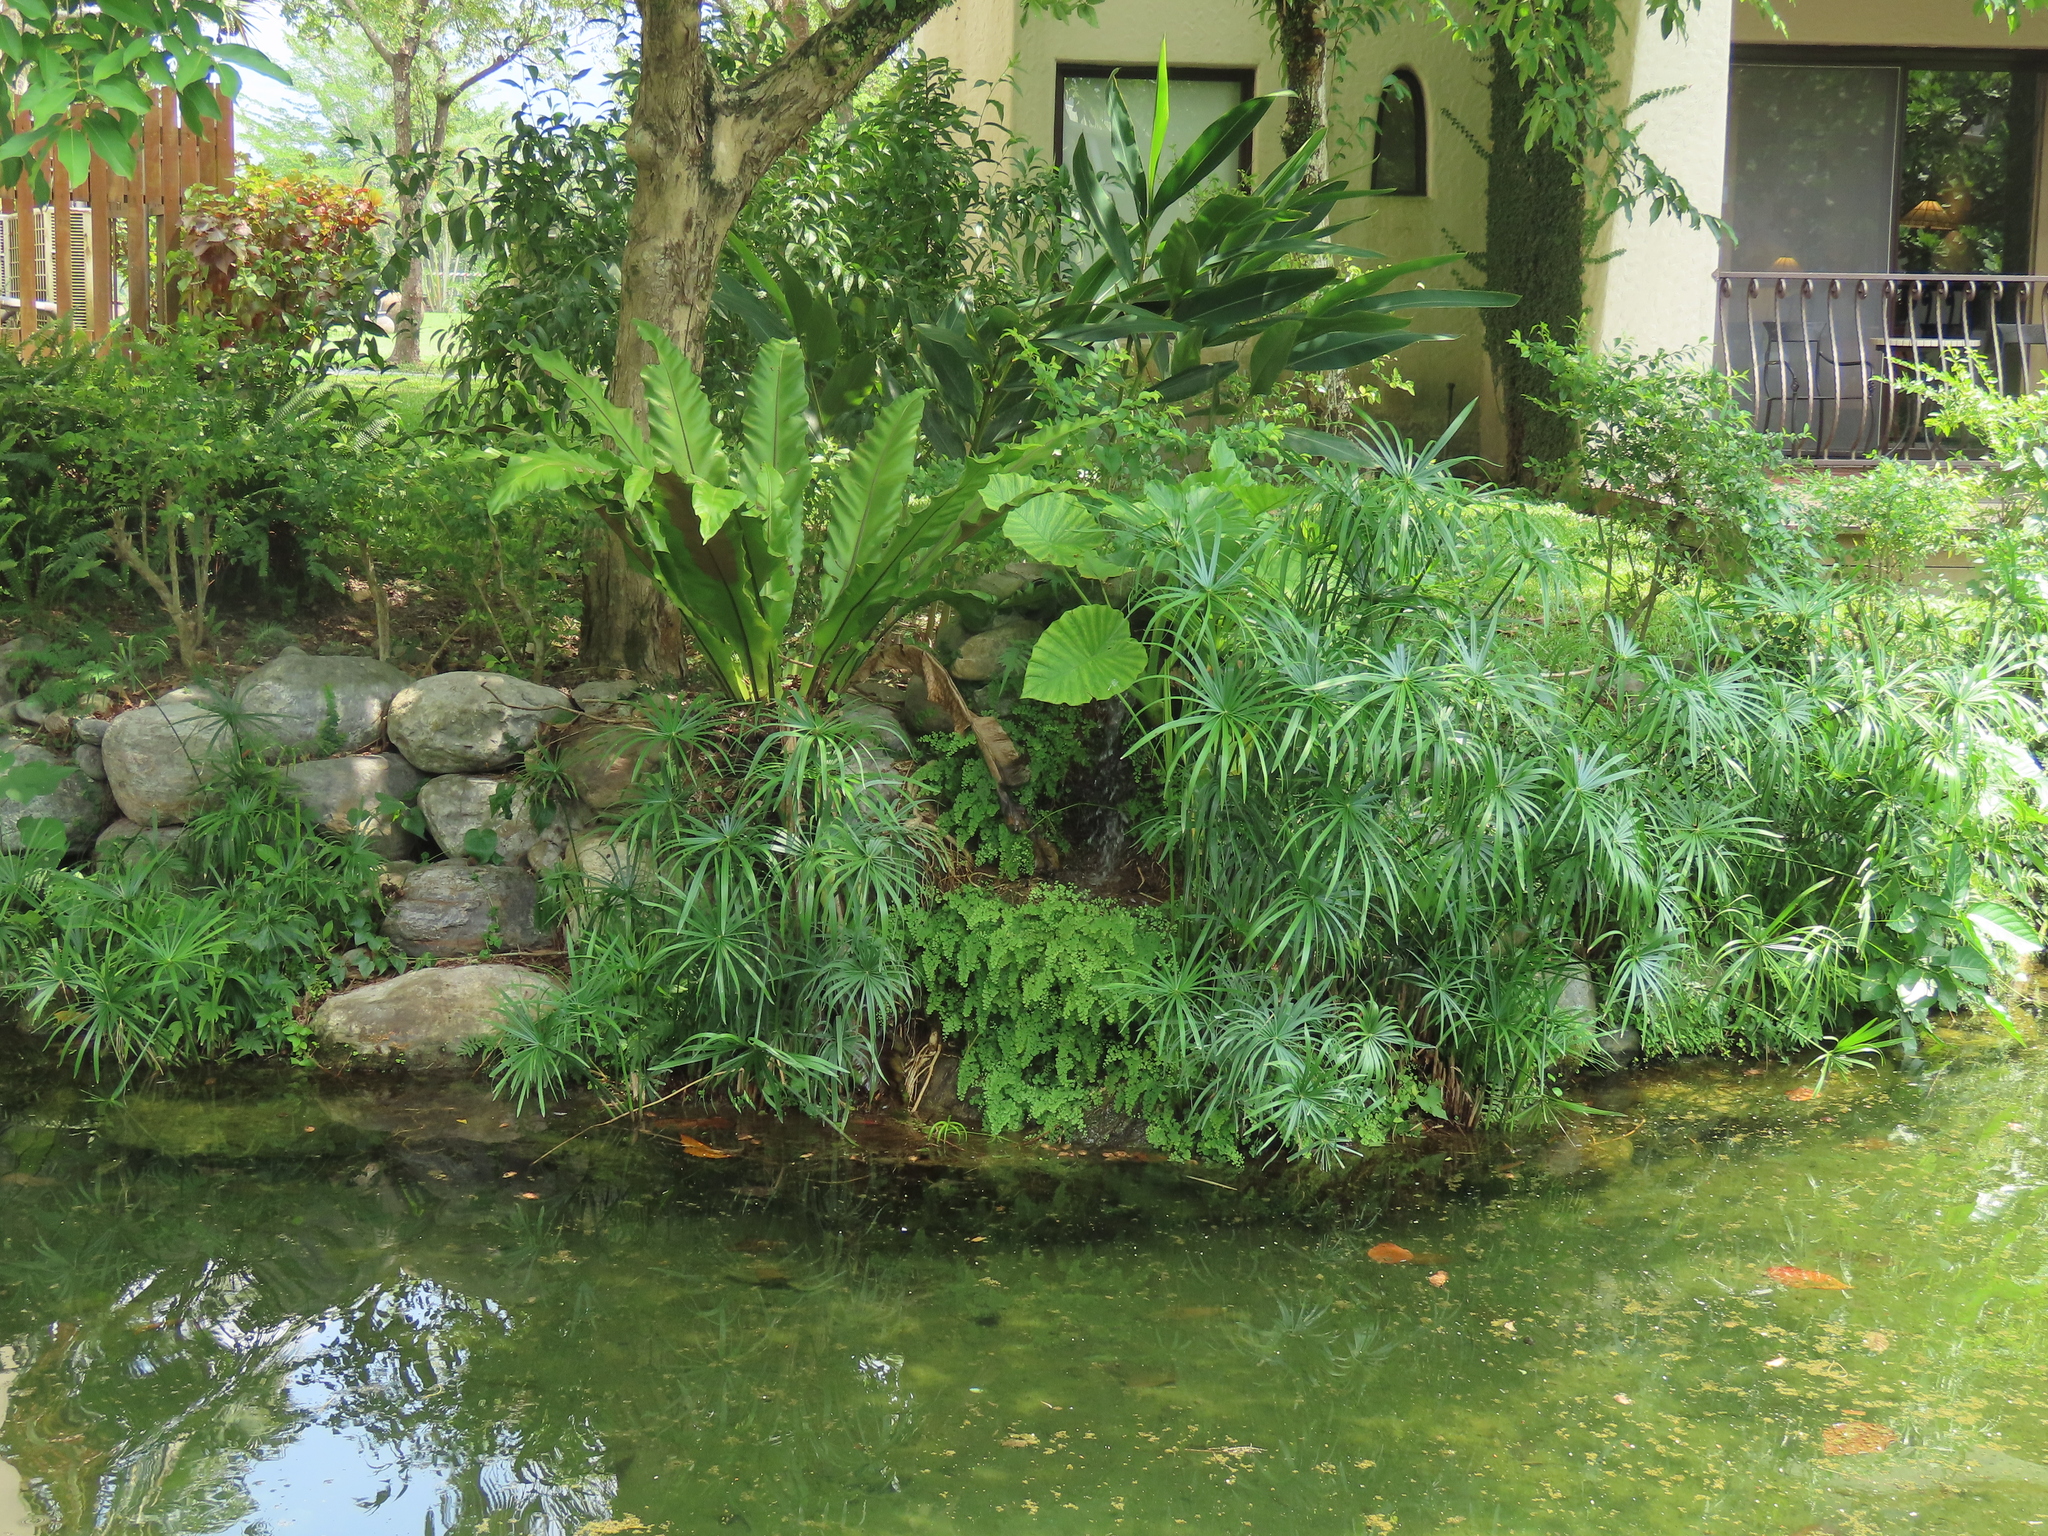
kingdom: Plantae
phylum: Tracheophyta
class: Polypodiopsida
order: Polypodiales
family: Pteridaceae
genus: Adiantum
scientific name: Adiantum capillus-veneris
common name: Maidenhair fern
